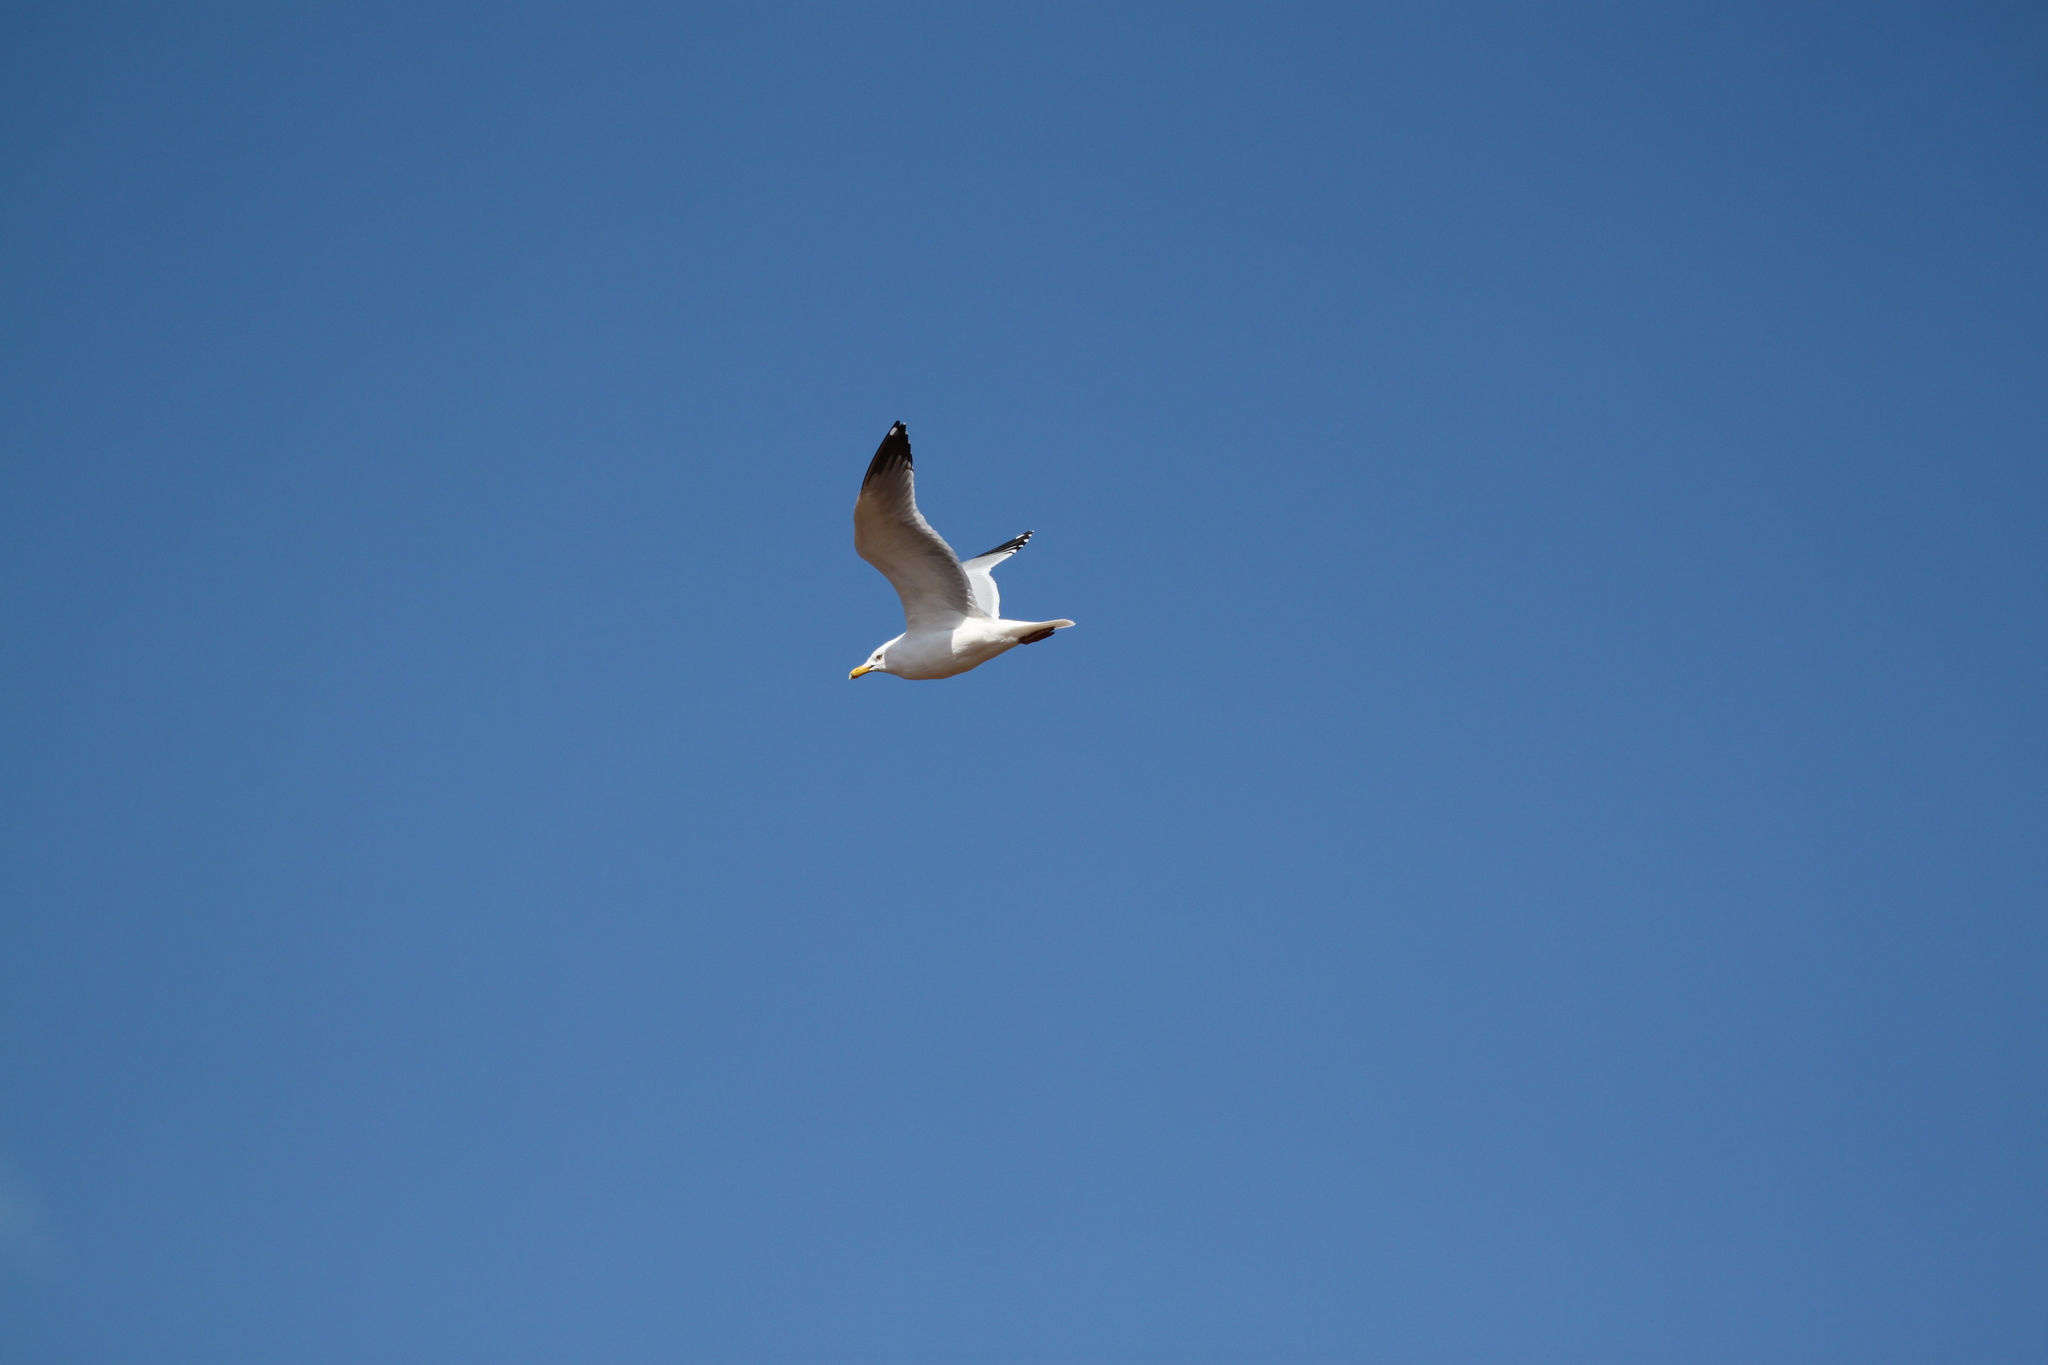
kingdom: Animalia
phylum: Chordata
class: Aves
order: Charadriiformes
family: Laridae
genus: Larus
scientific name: Larus argentatus
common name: Herring gull
